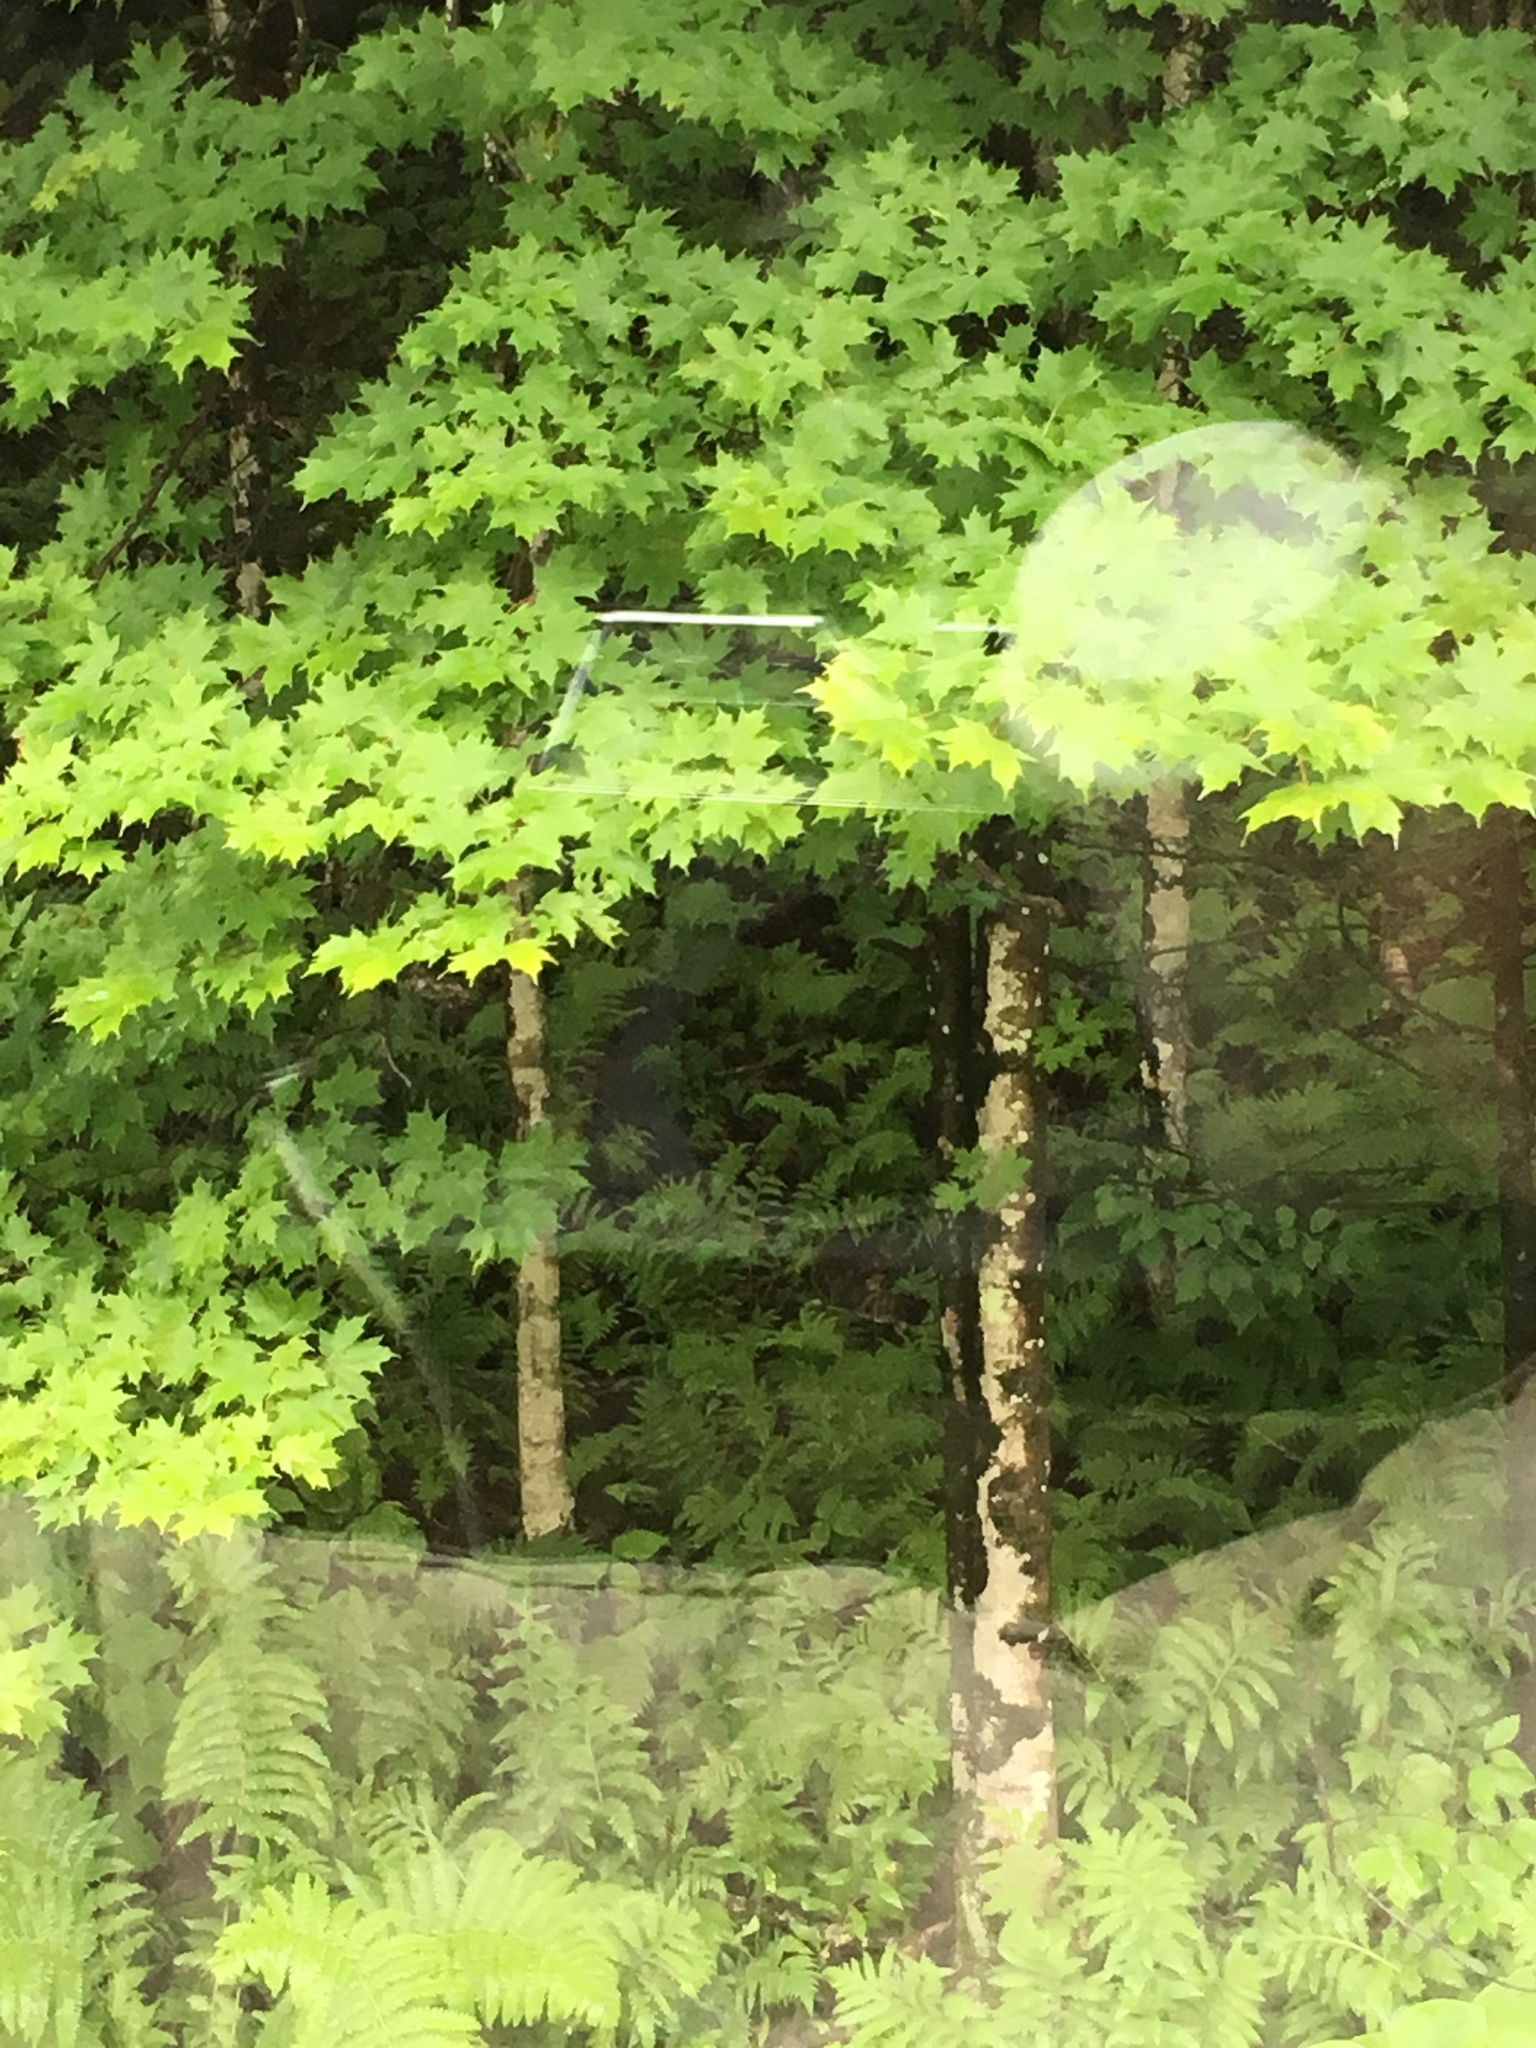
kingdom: Plantae
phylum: Tracheophyta
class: Magnoliopsida
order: Sapindales
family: Sapindaceae
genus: Acer
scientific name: Acer saccharum
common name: Sugar maple
